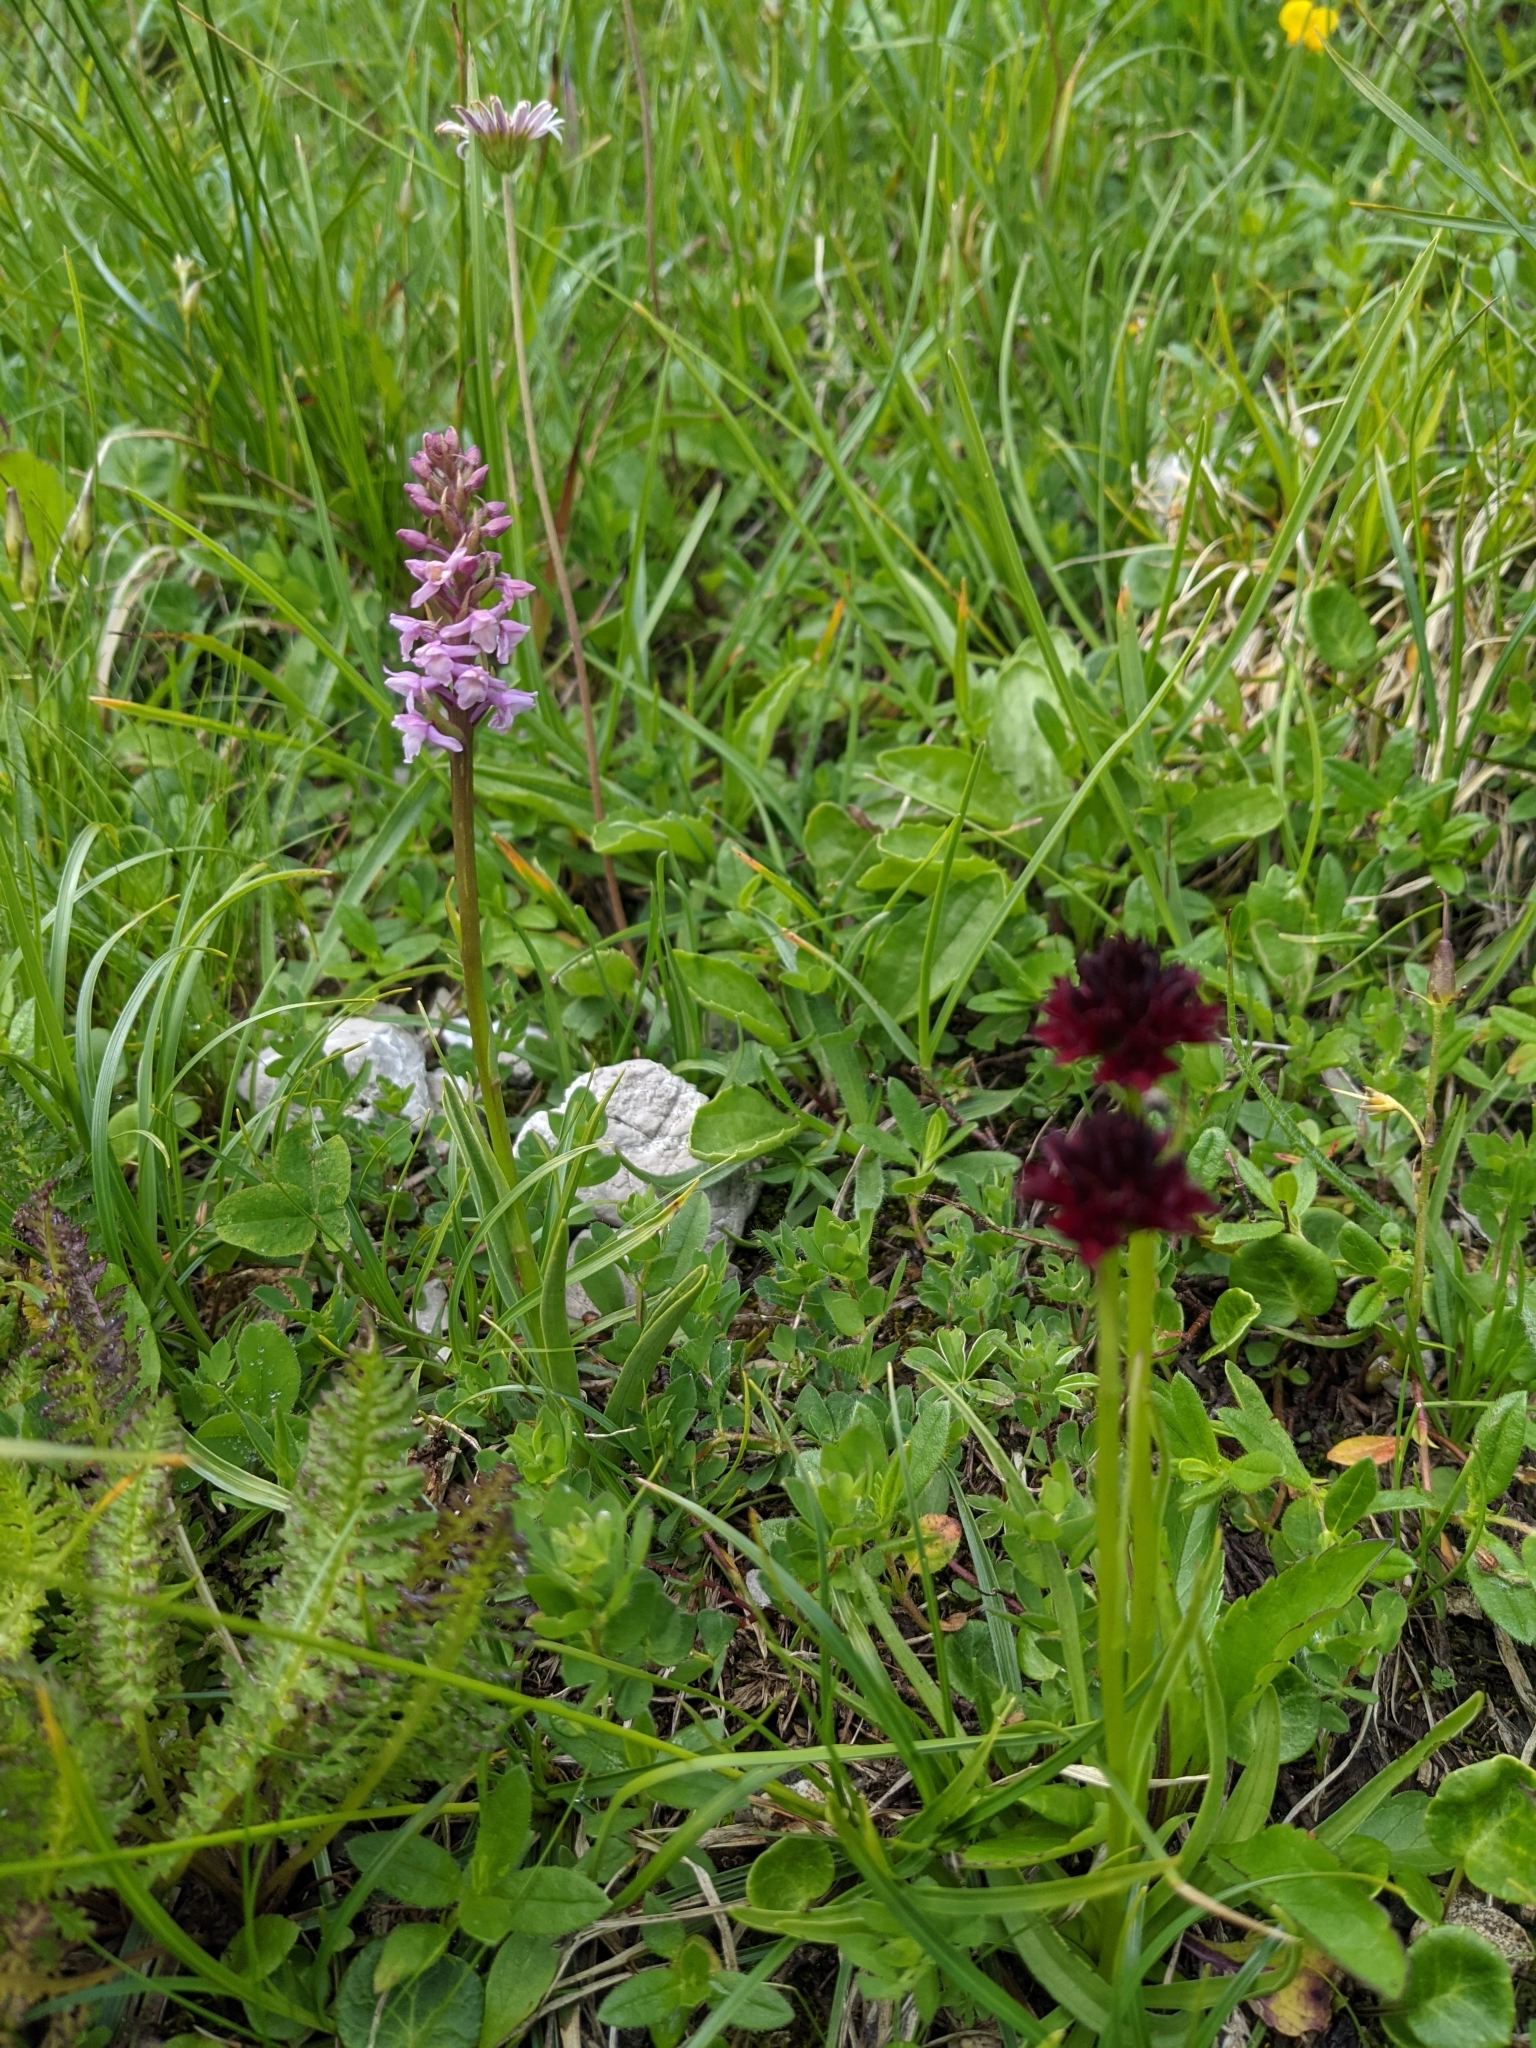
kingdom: Plantae
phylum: Tracheophyta
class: Liliopsida
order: Asparagales
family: Orchidaceae
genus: Gymnadenia
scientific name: Gymnadenia odoratissima
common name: Scented gymnadenia
